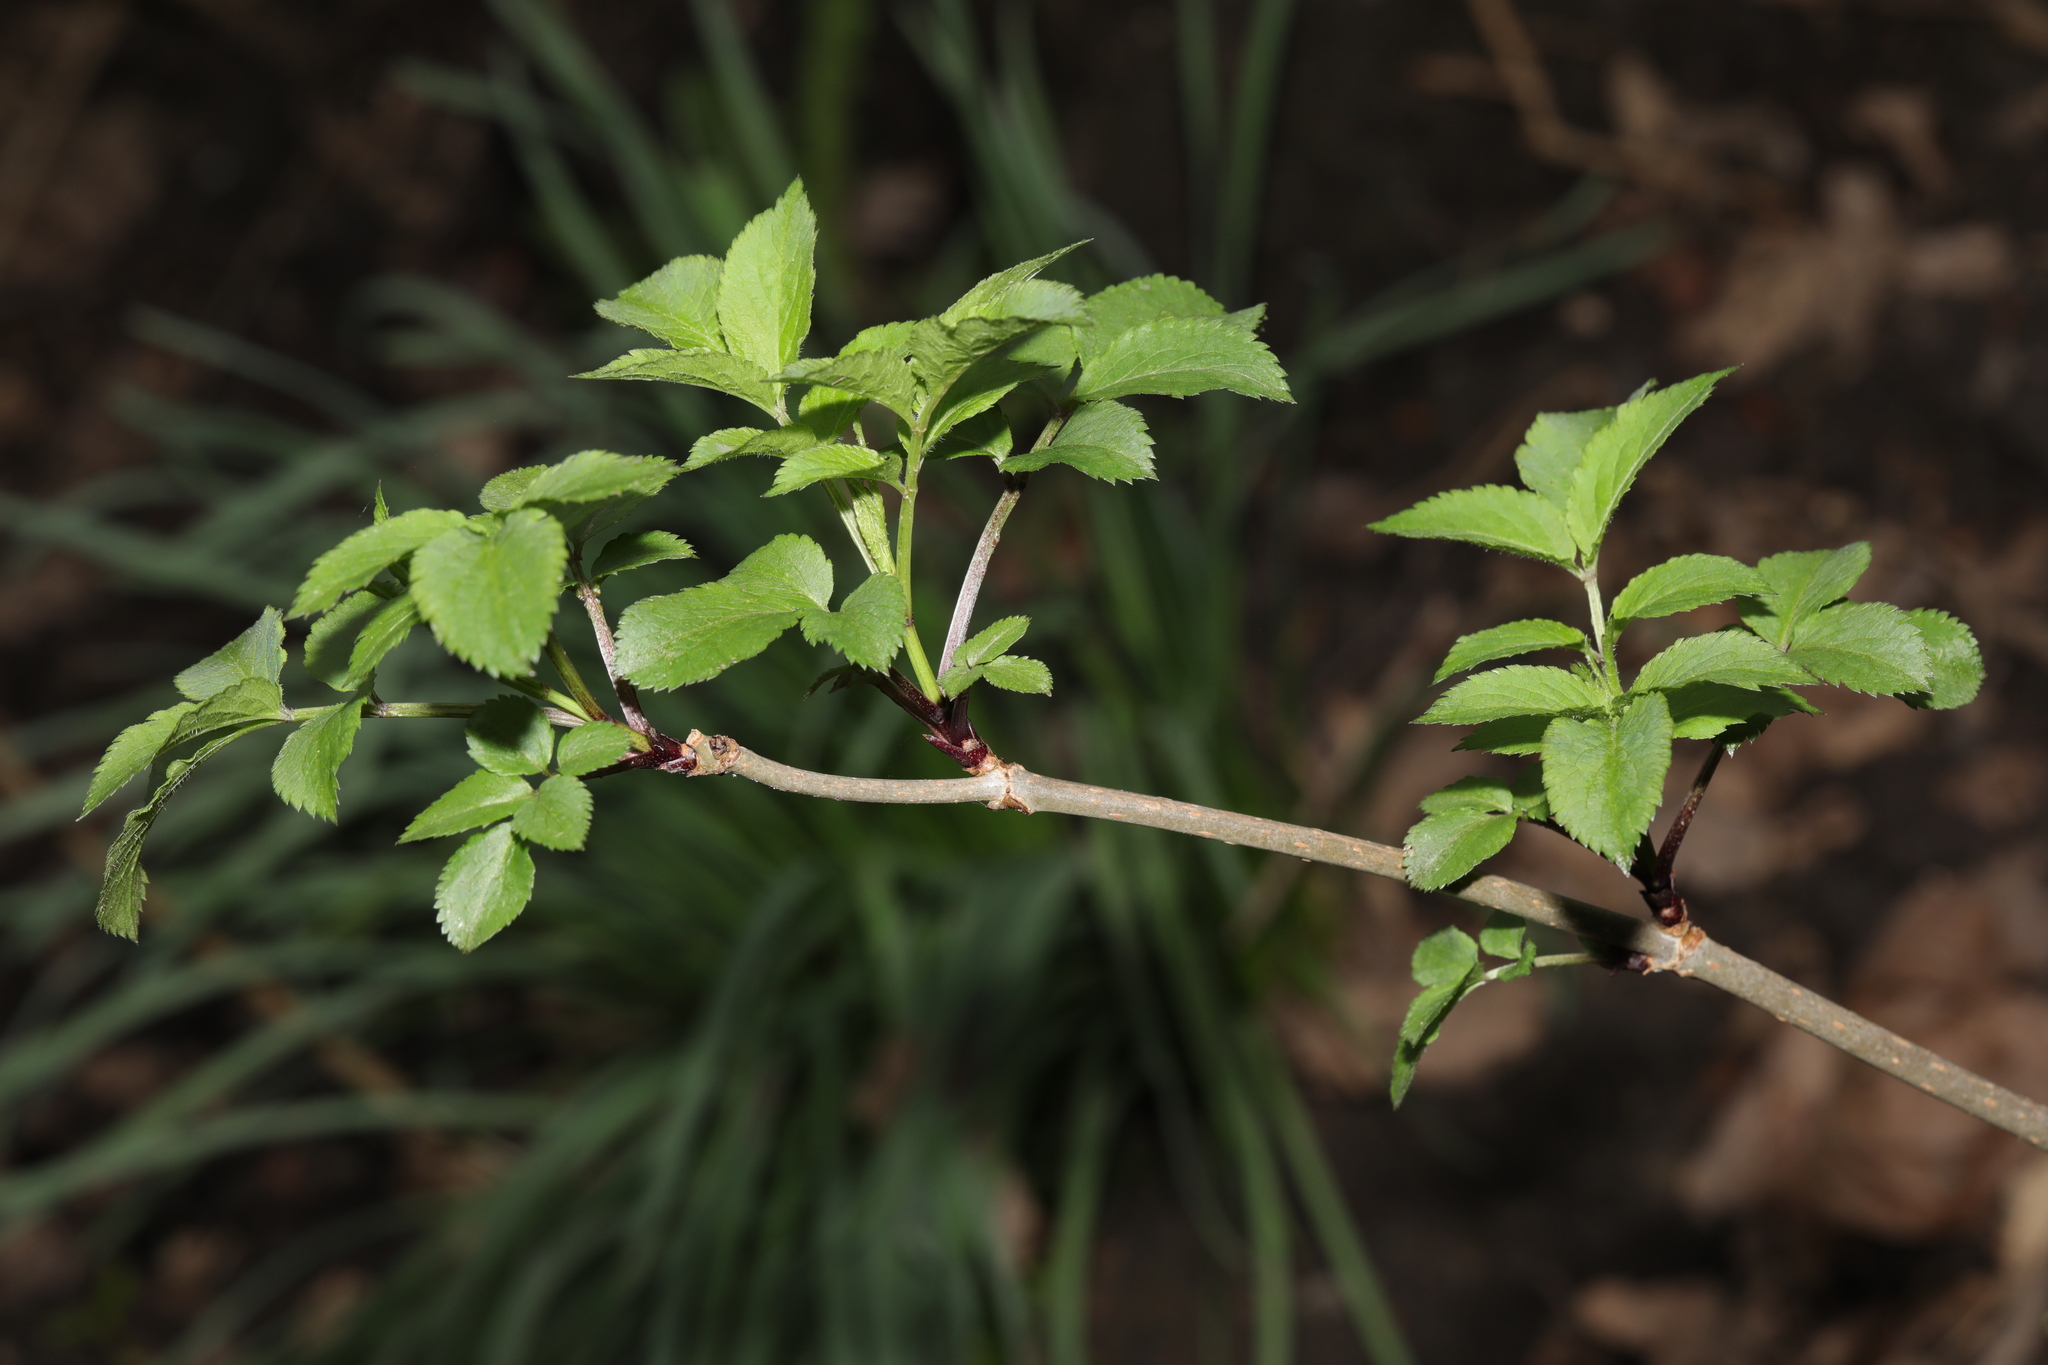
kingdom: Plantae
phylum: Tracheophyta
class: Magnoliopsida
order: Dipsacales
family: Viburnaceae
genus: Sambucus
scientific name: Sambucus nigra
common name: Elder
